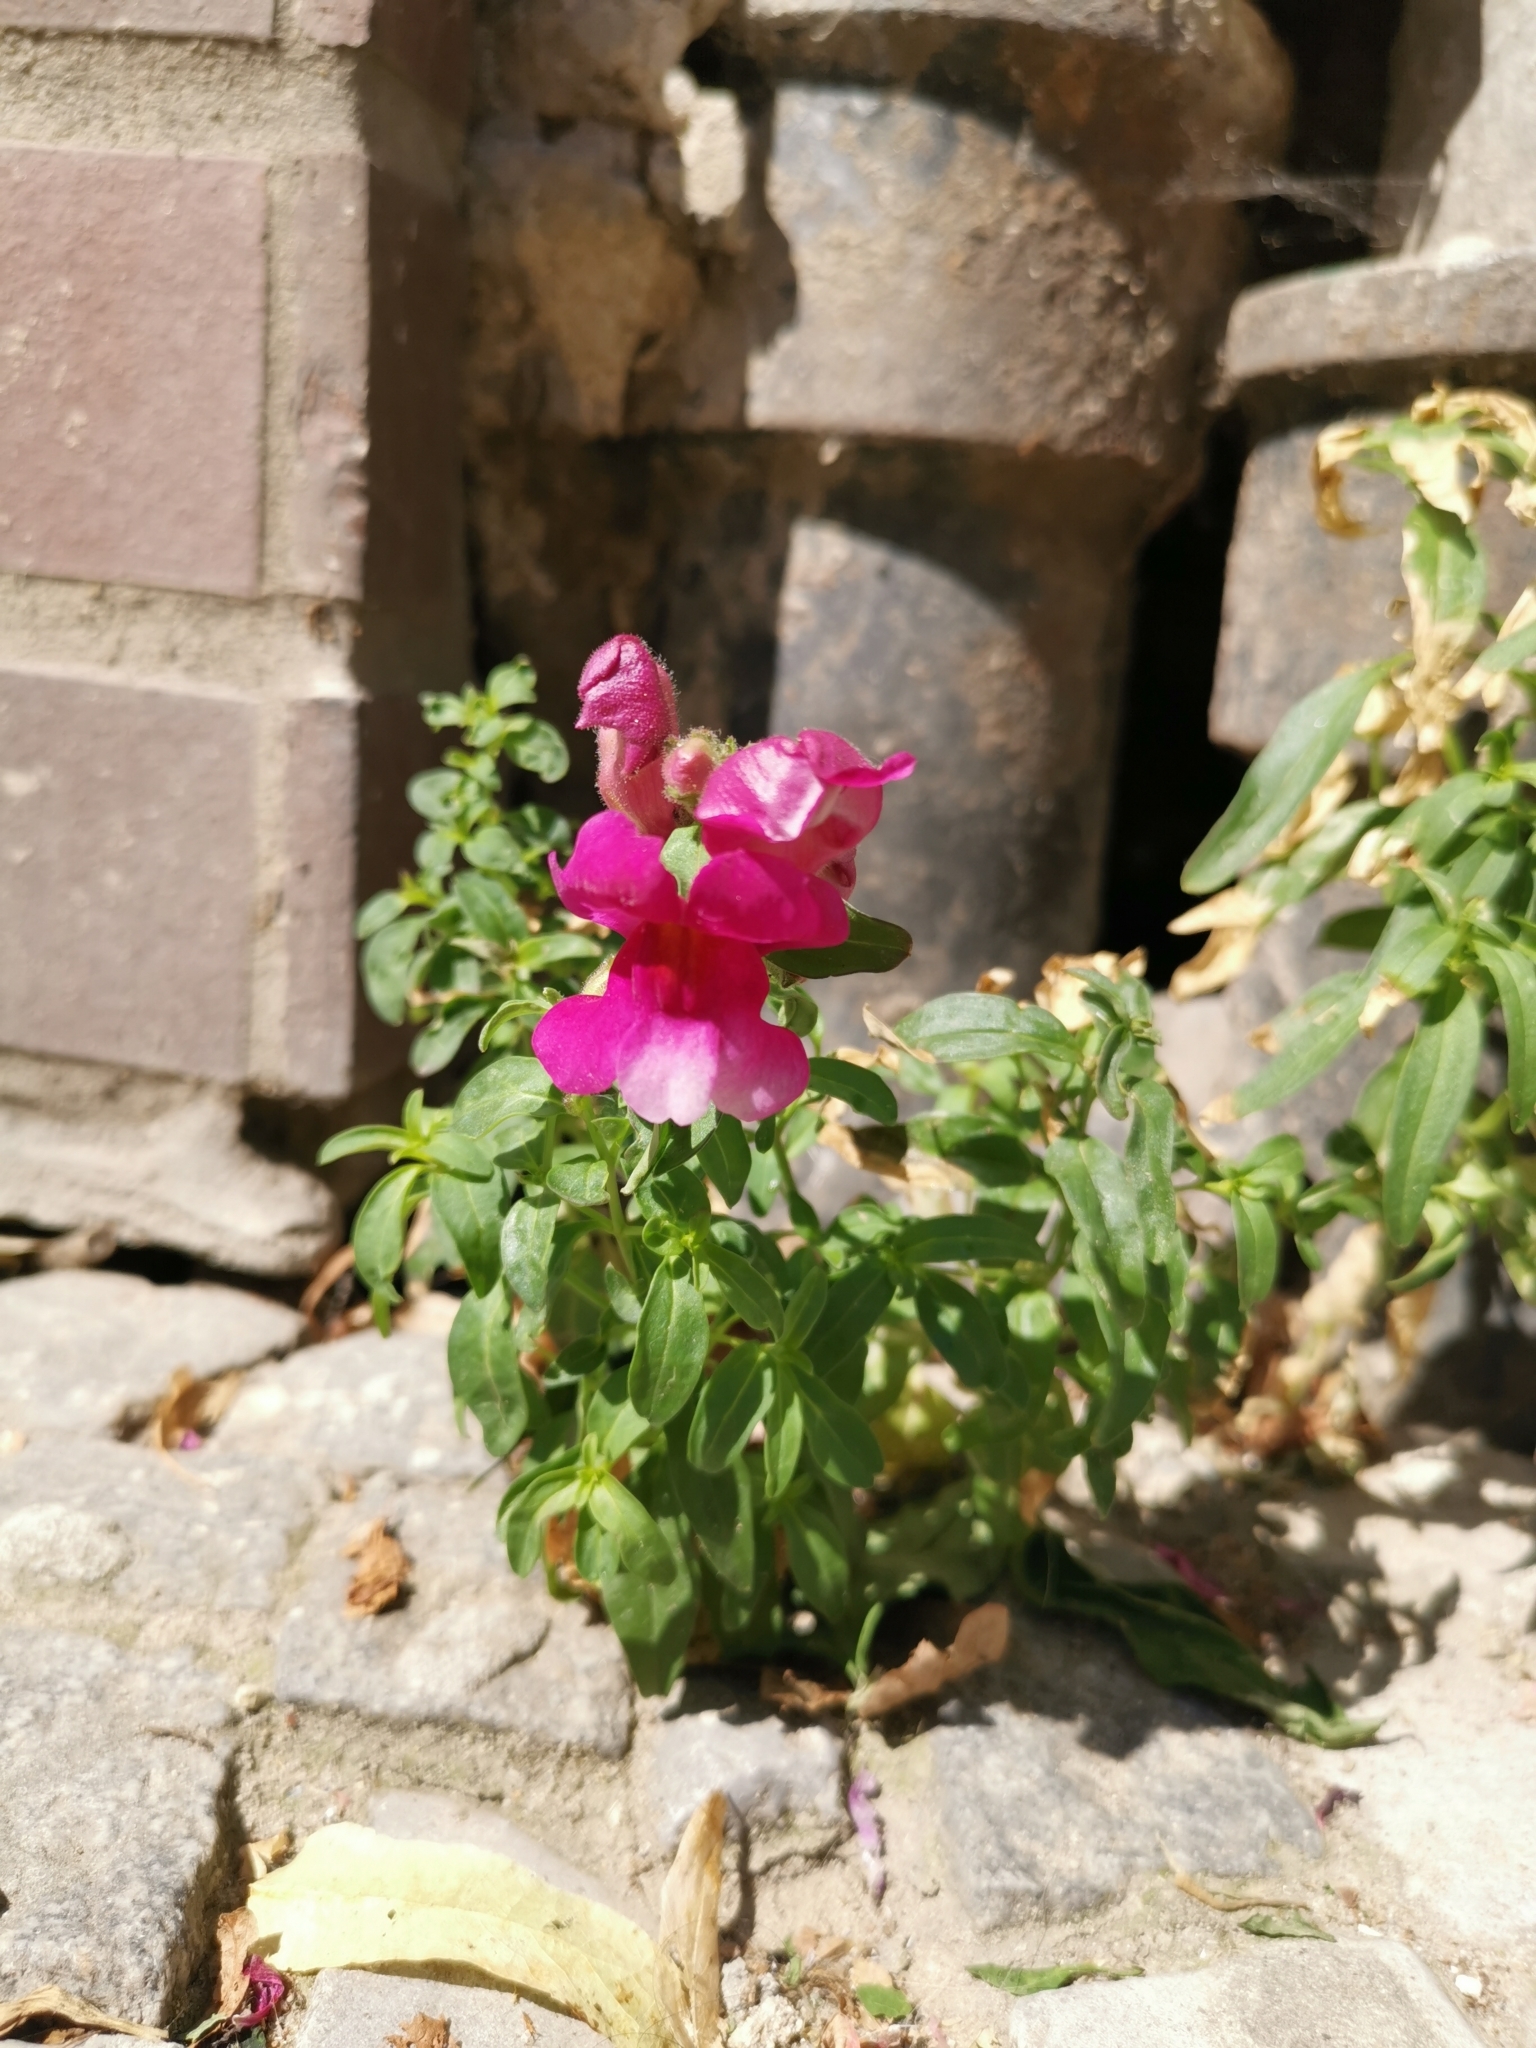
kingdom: Plantae
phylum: Tracheophyta
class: Magnoliopsida
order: Lamiales
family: Plantaginaceae
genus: Antirrhinum
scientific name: Antirrhinum majus
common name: Snapdragon
